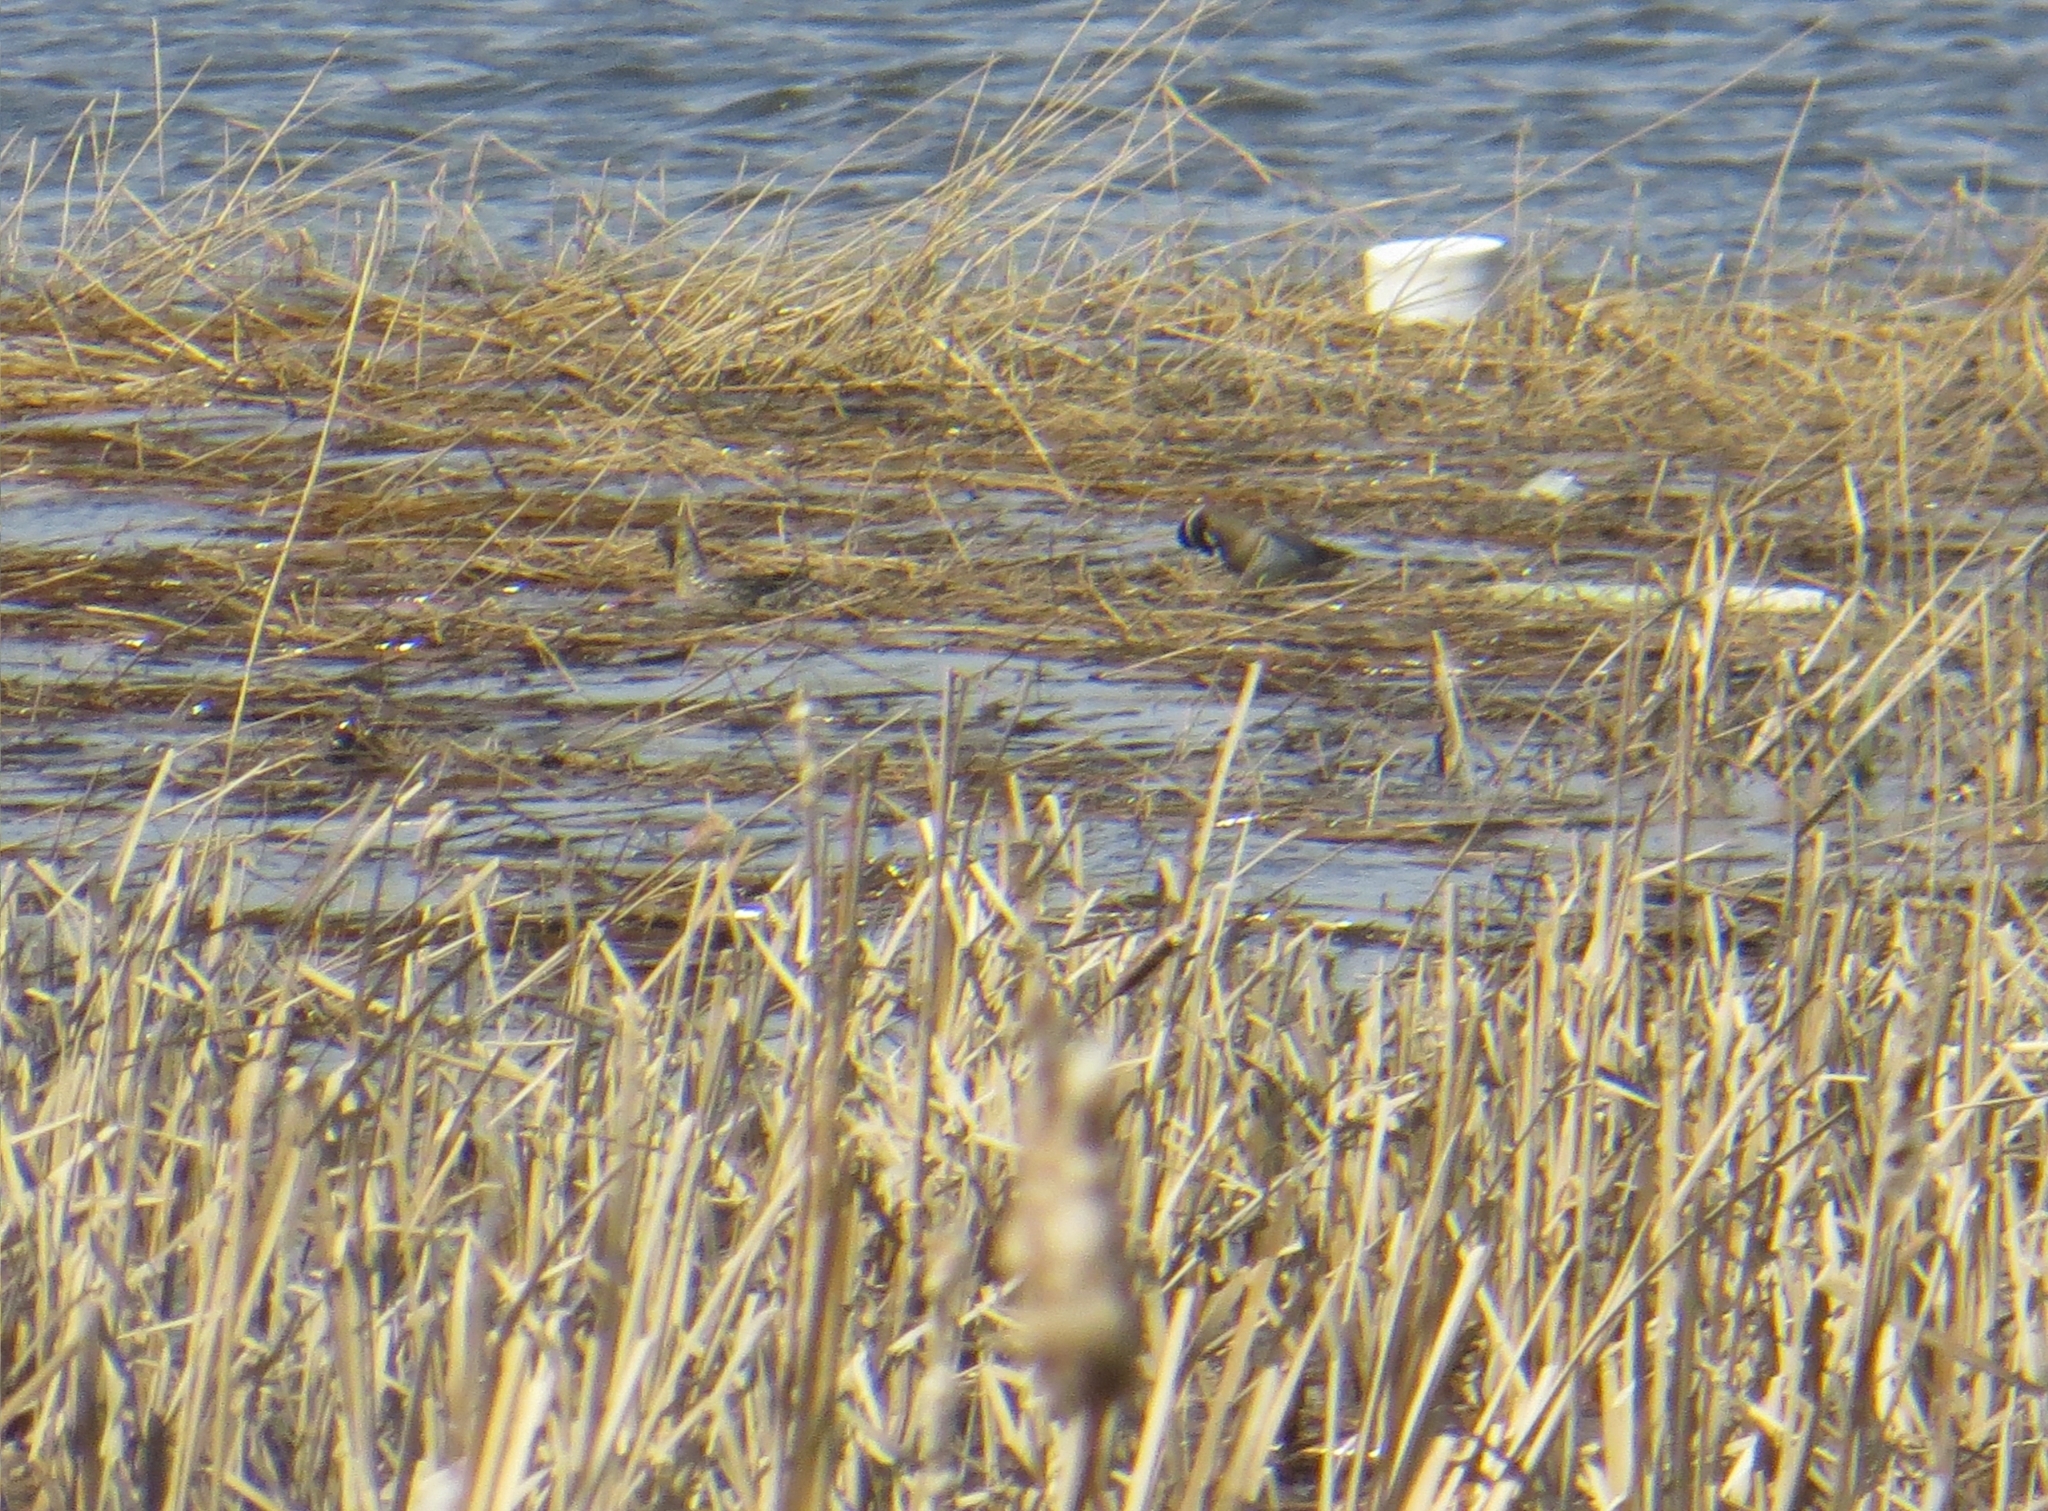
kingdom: Animalia
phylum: Chordata
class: Aves
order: Anseriformes
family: Anatidae
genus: Spatula
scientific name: Spatula querquedula
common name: Garganey
